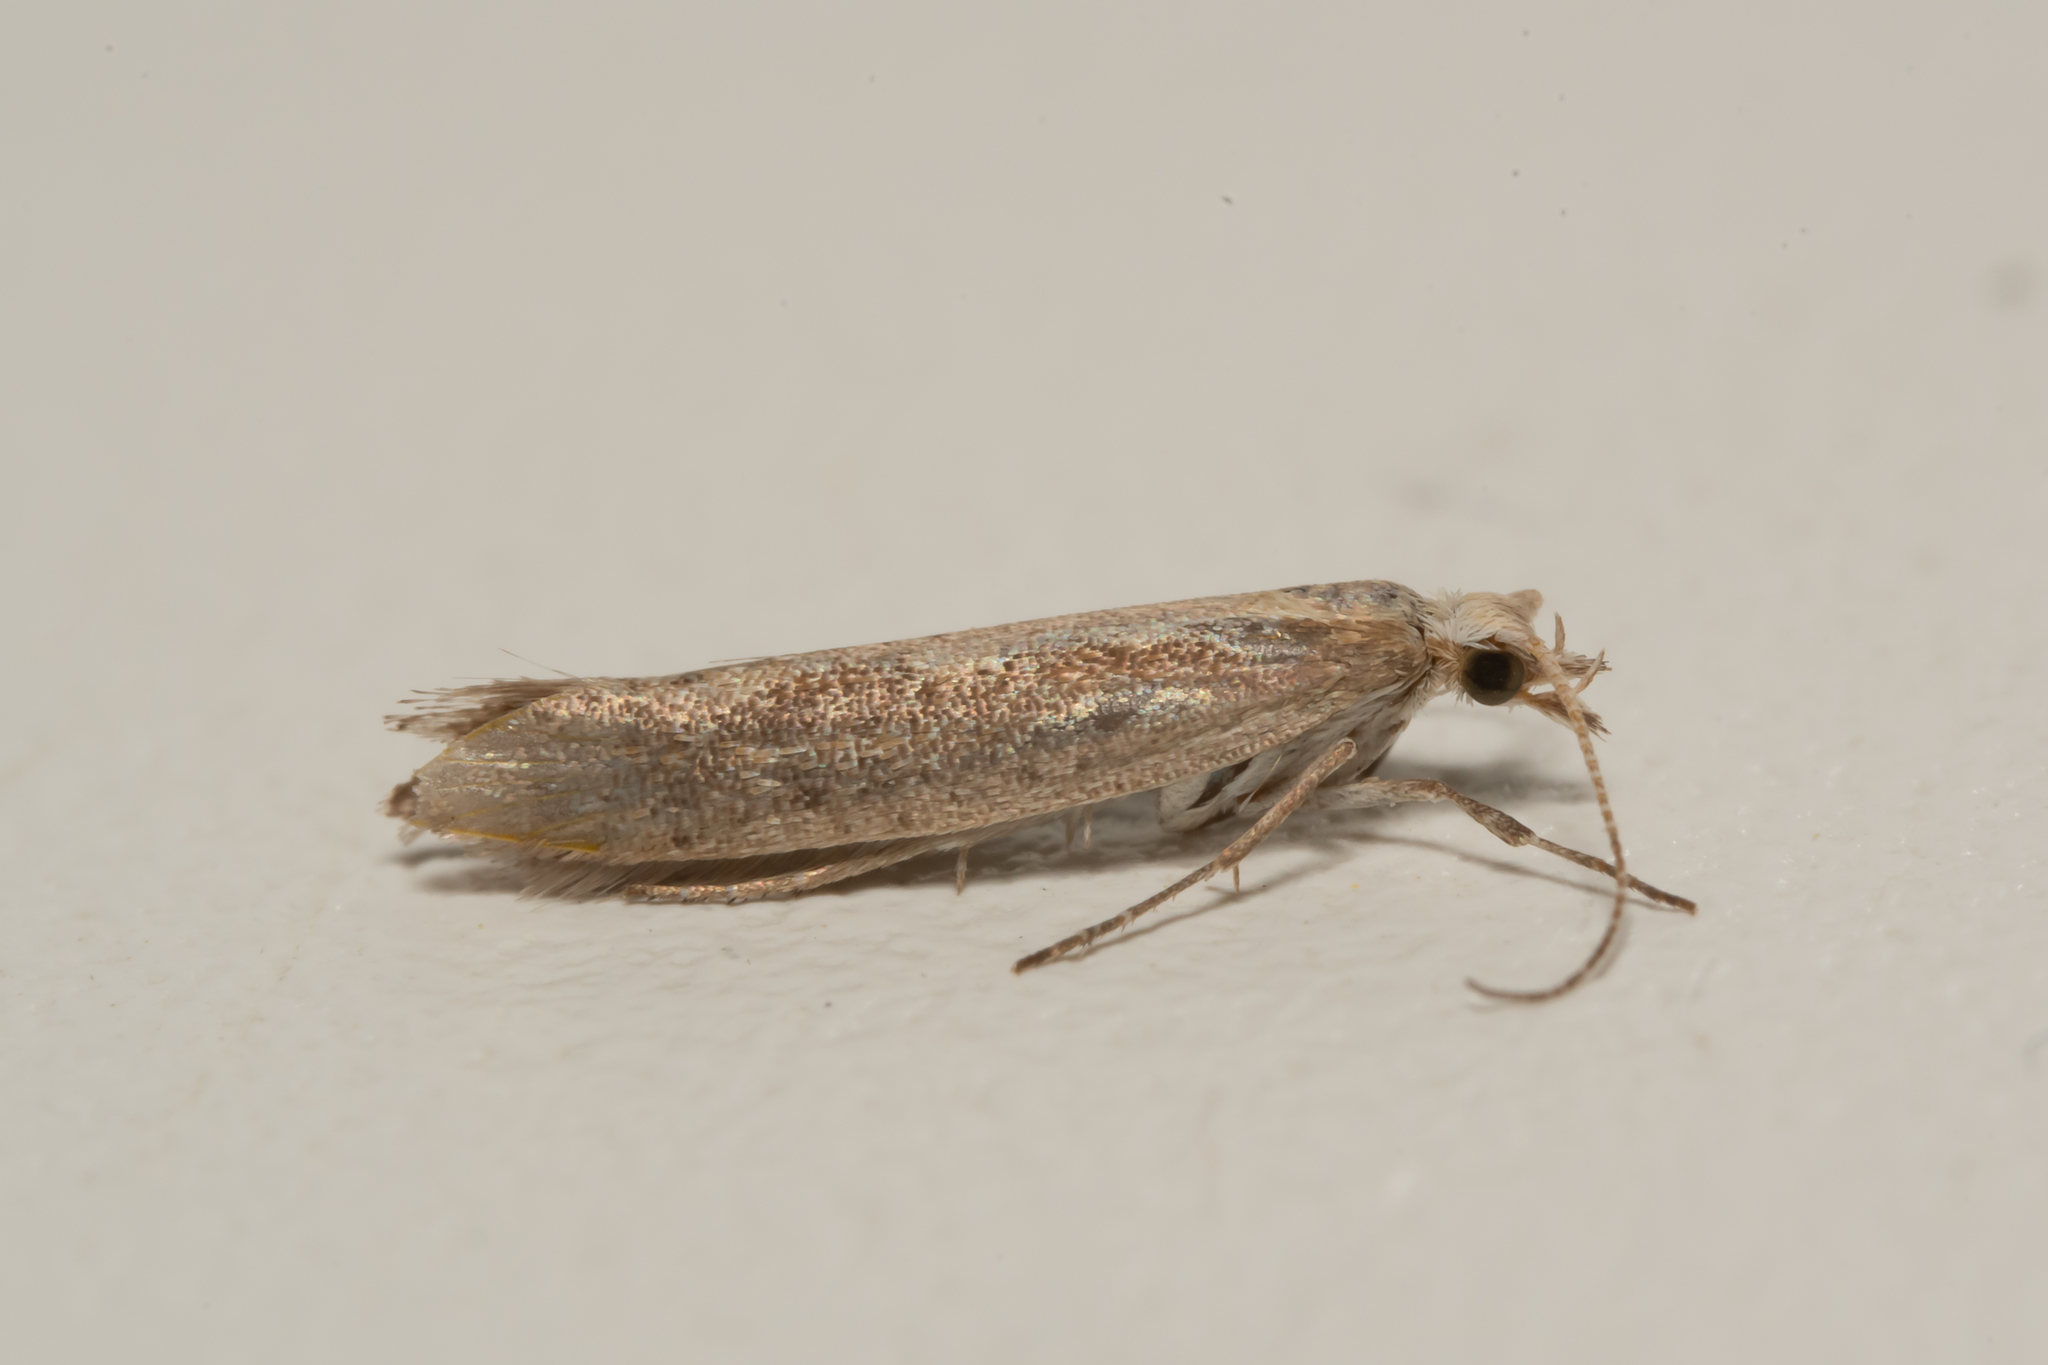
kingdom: Animalia
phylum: Arthropoda
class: Insecta
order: Lepidoptera
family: Plutellidae
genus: Plutella
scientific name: Plutella xylostella
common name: Diamond-back moth
